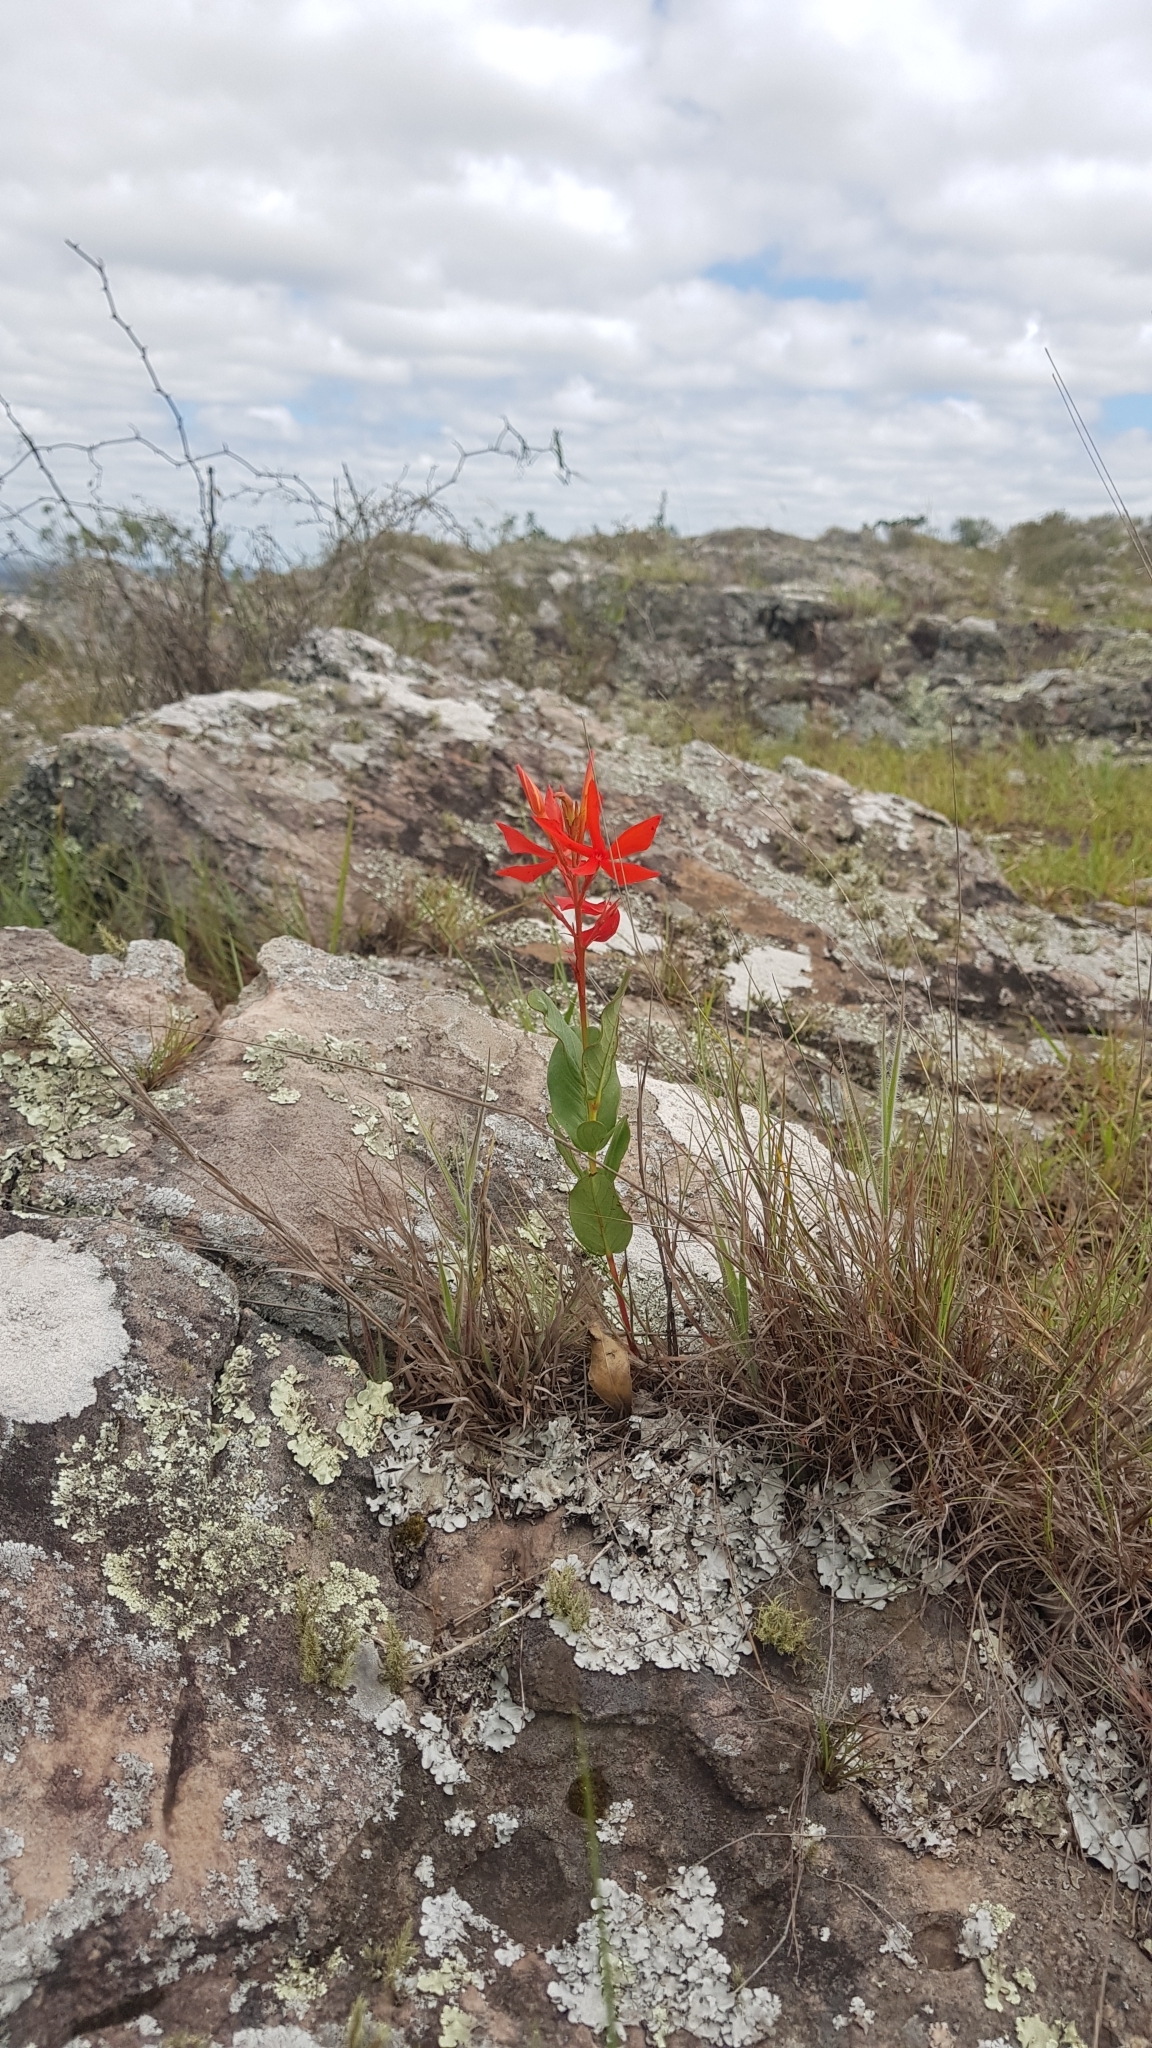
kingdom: Plantae
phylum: Tracheophyta
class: Magnoliopsida
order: Gentianales
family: Apocynaceae
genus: Mandevilla
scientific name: Mandevilla coccinea
